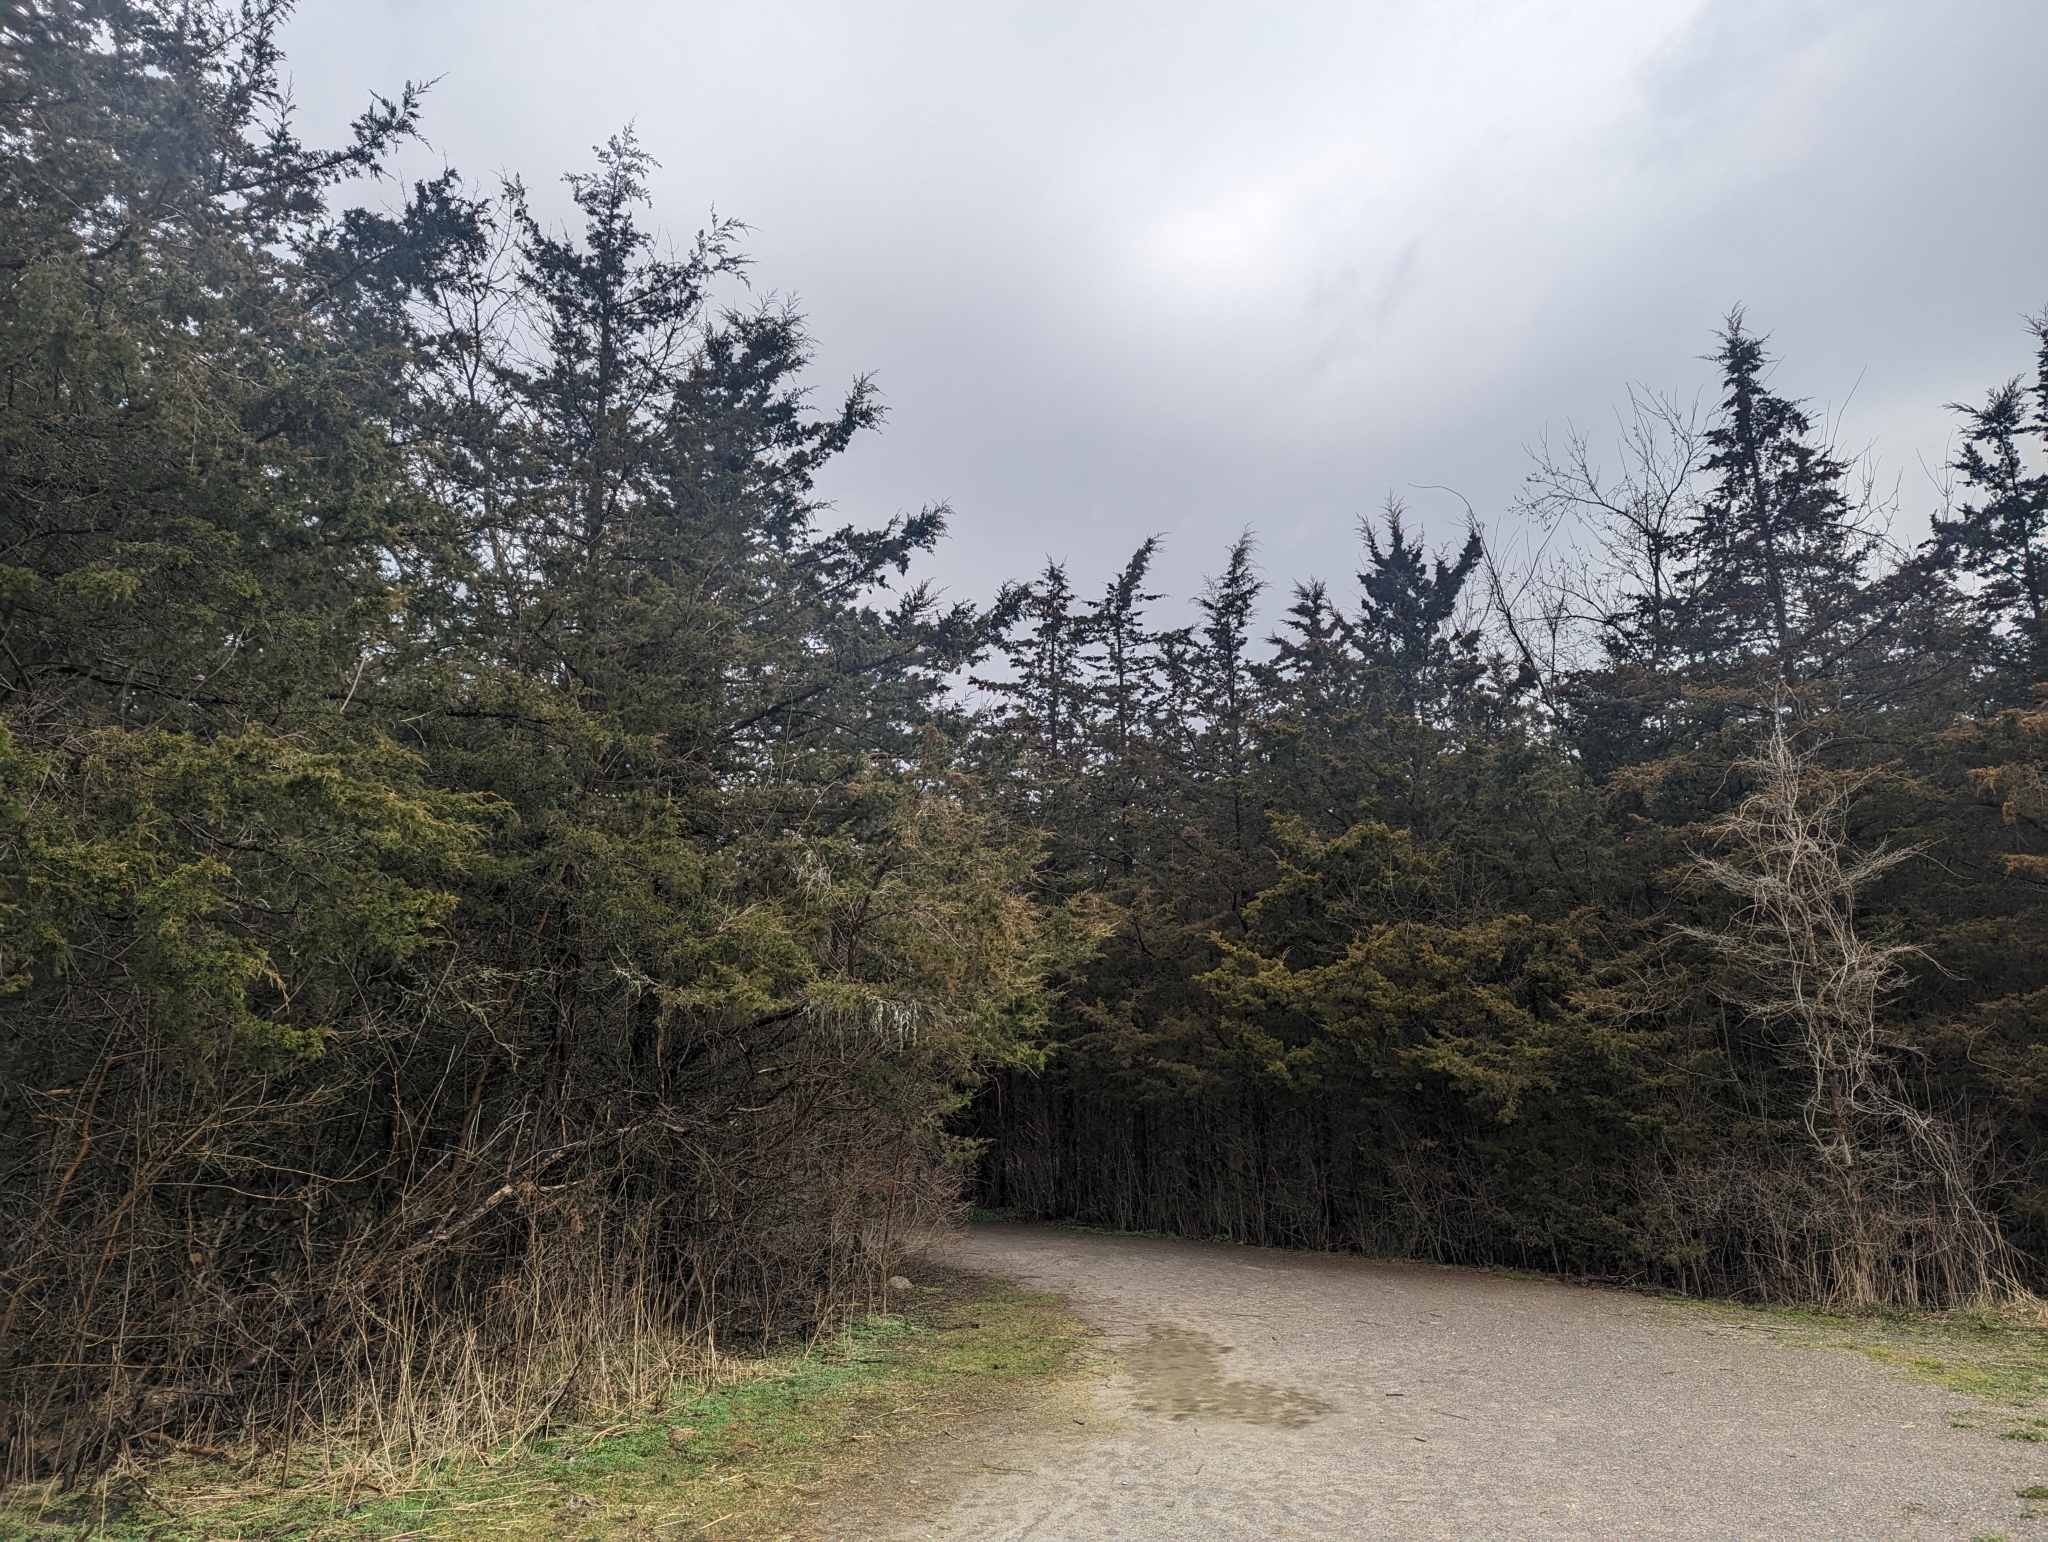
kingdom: Plantae
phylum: Tracheophyta
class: Pinopsida
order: Pinales
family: Cupressaceae
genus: Juniperus
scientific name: Juniperus virginiana
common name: Red juniper
